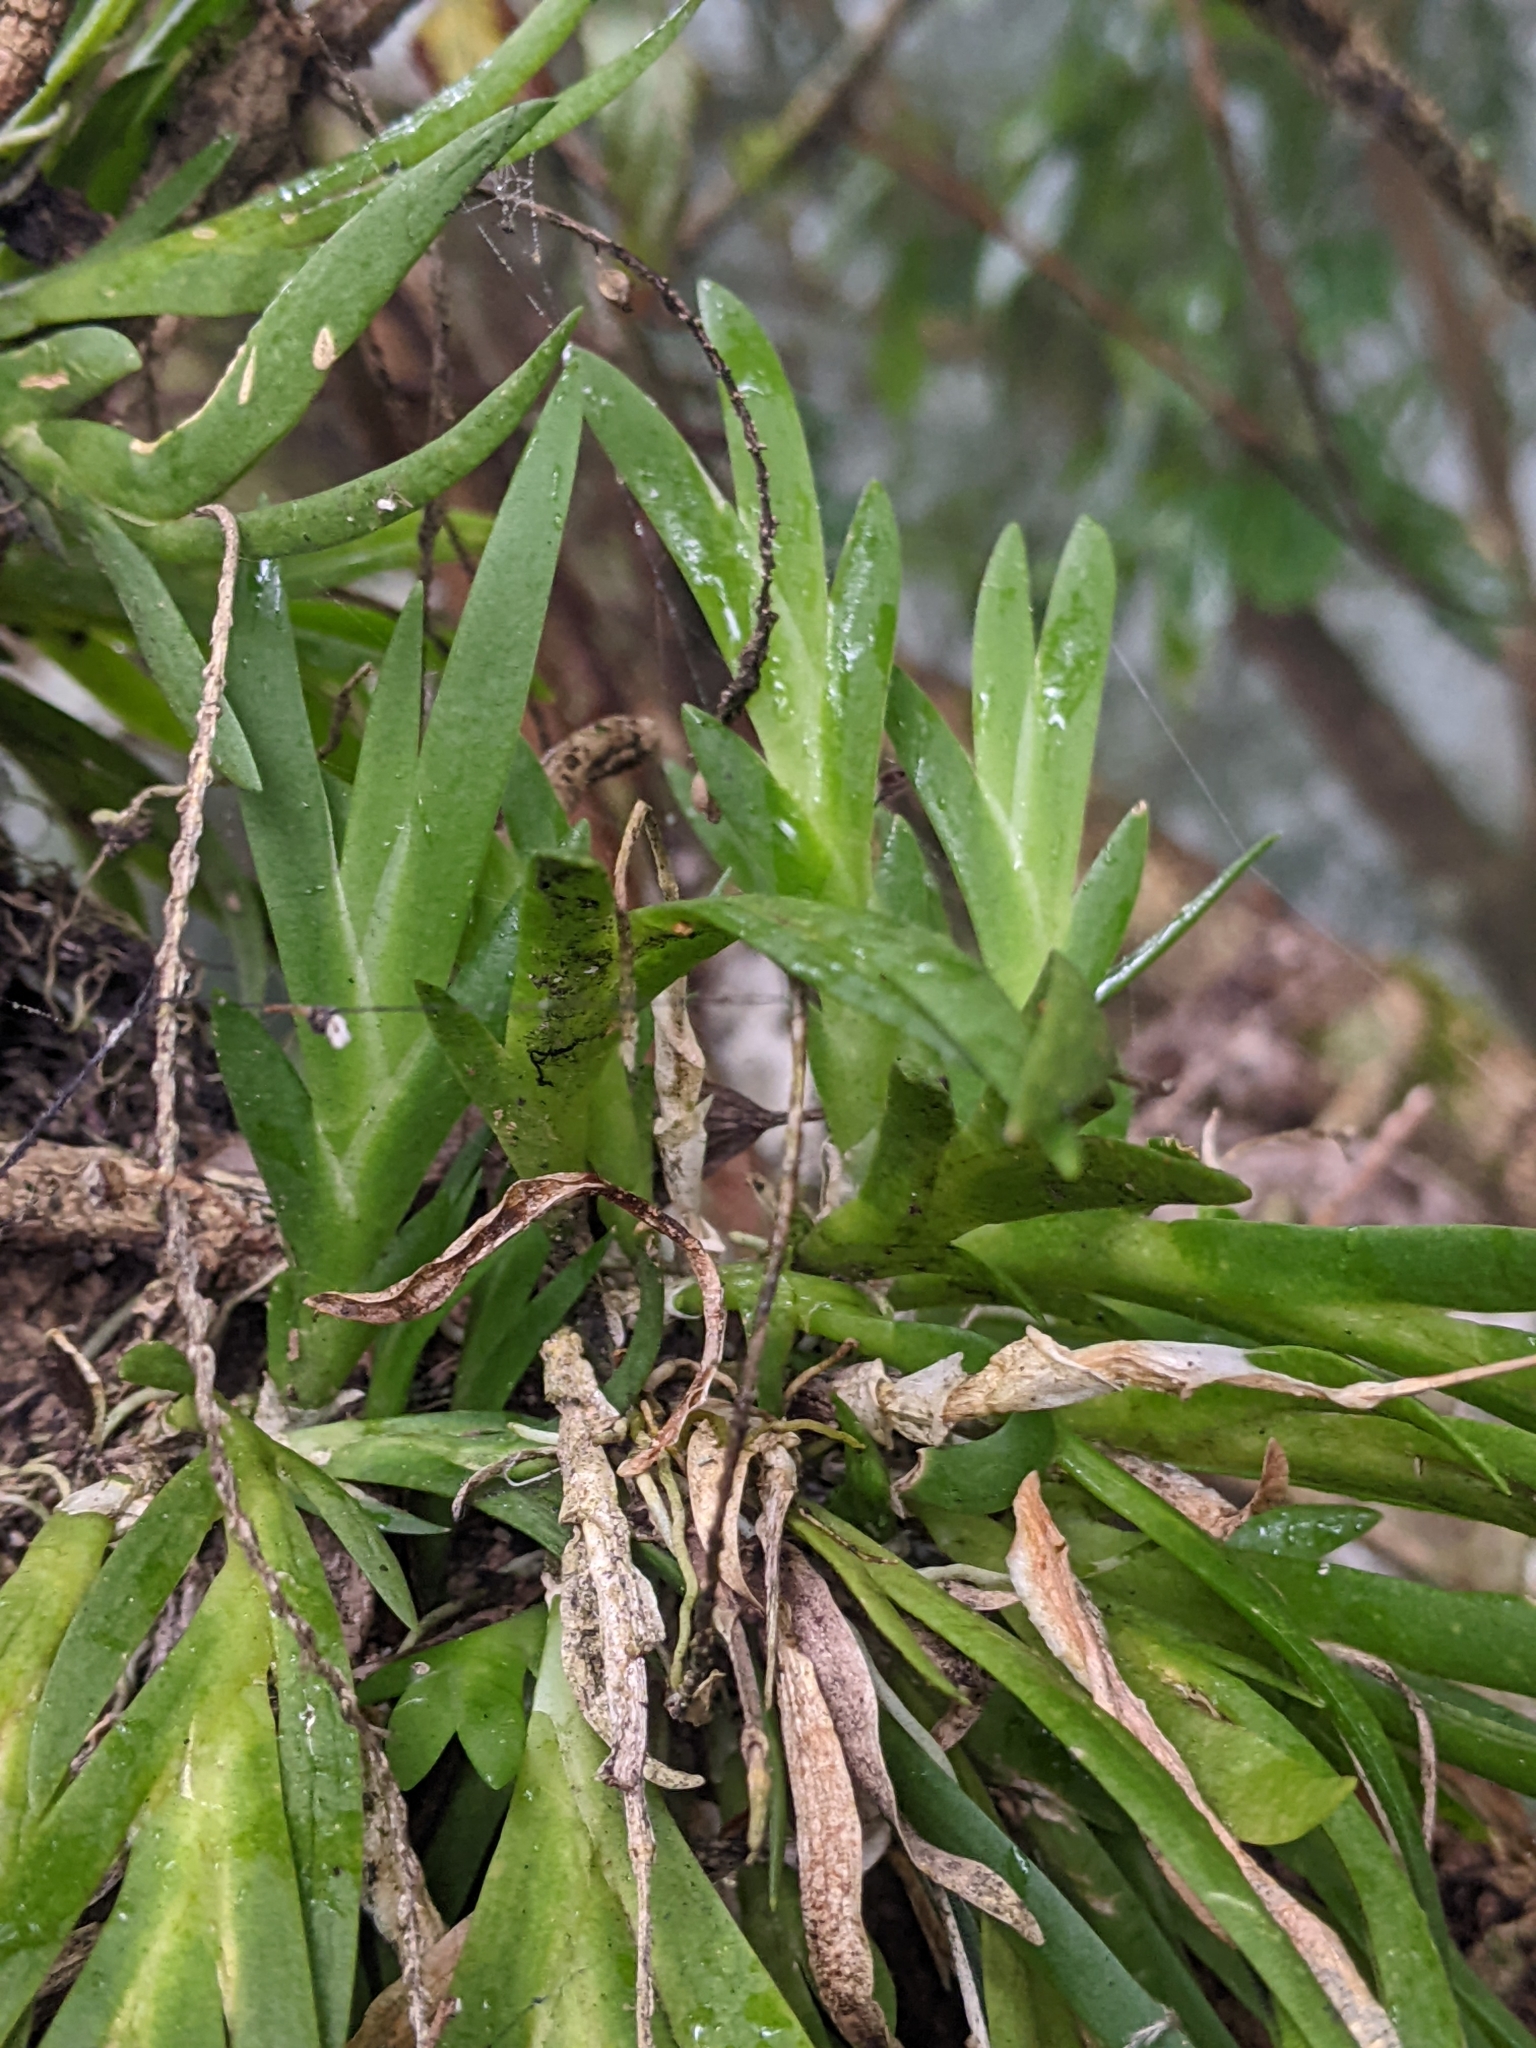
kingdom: Plantae
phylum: Tracheophyta
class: Liliopsida
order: Asparagales
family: Orchidaceae
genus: Oberonia
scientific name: Oberonia caulescens
